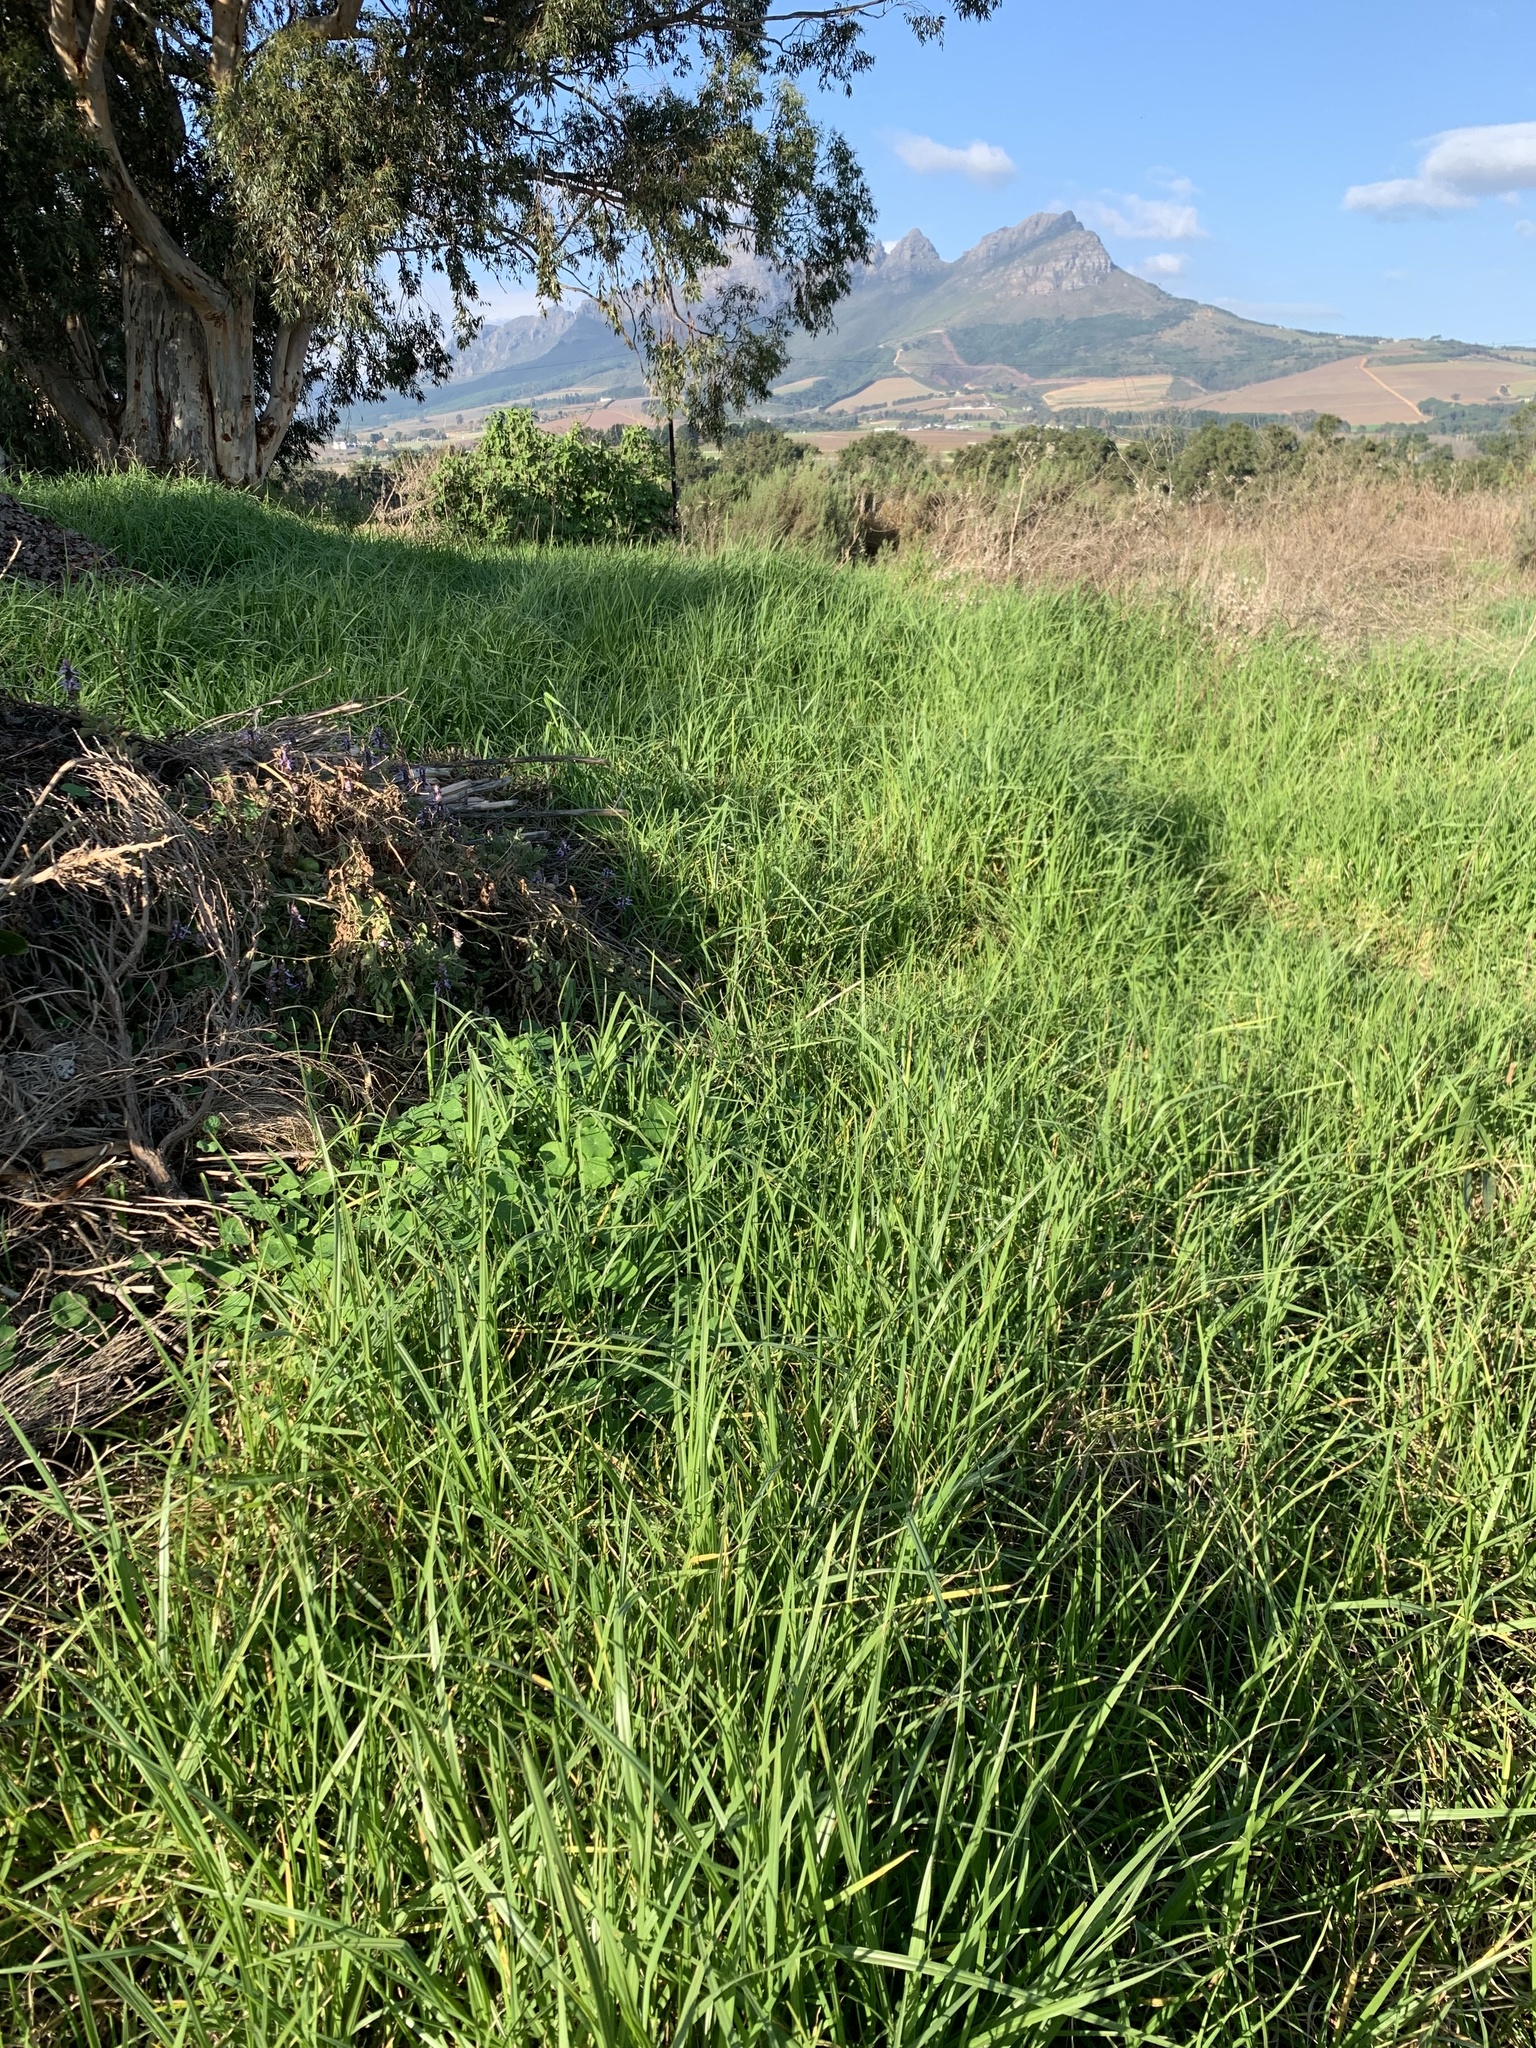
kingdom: Plantae
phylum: Tracheophyta
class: Liliopsida
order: Poales
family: Poaceae
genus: Cenchrus
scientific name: Cenchrus clandestinus
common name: Kikuyugrass
